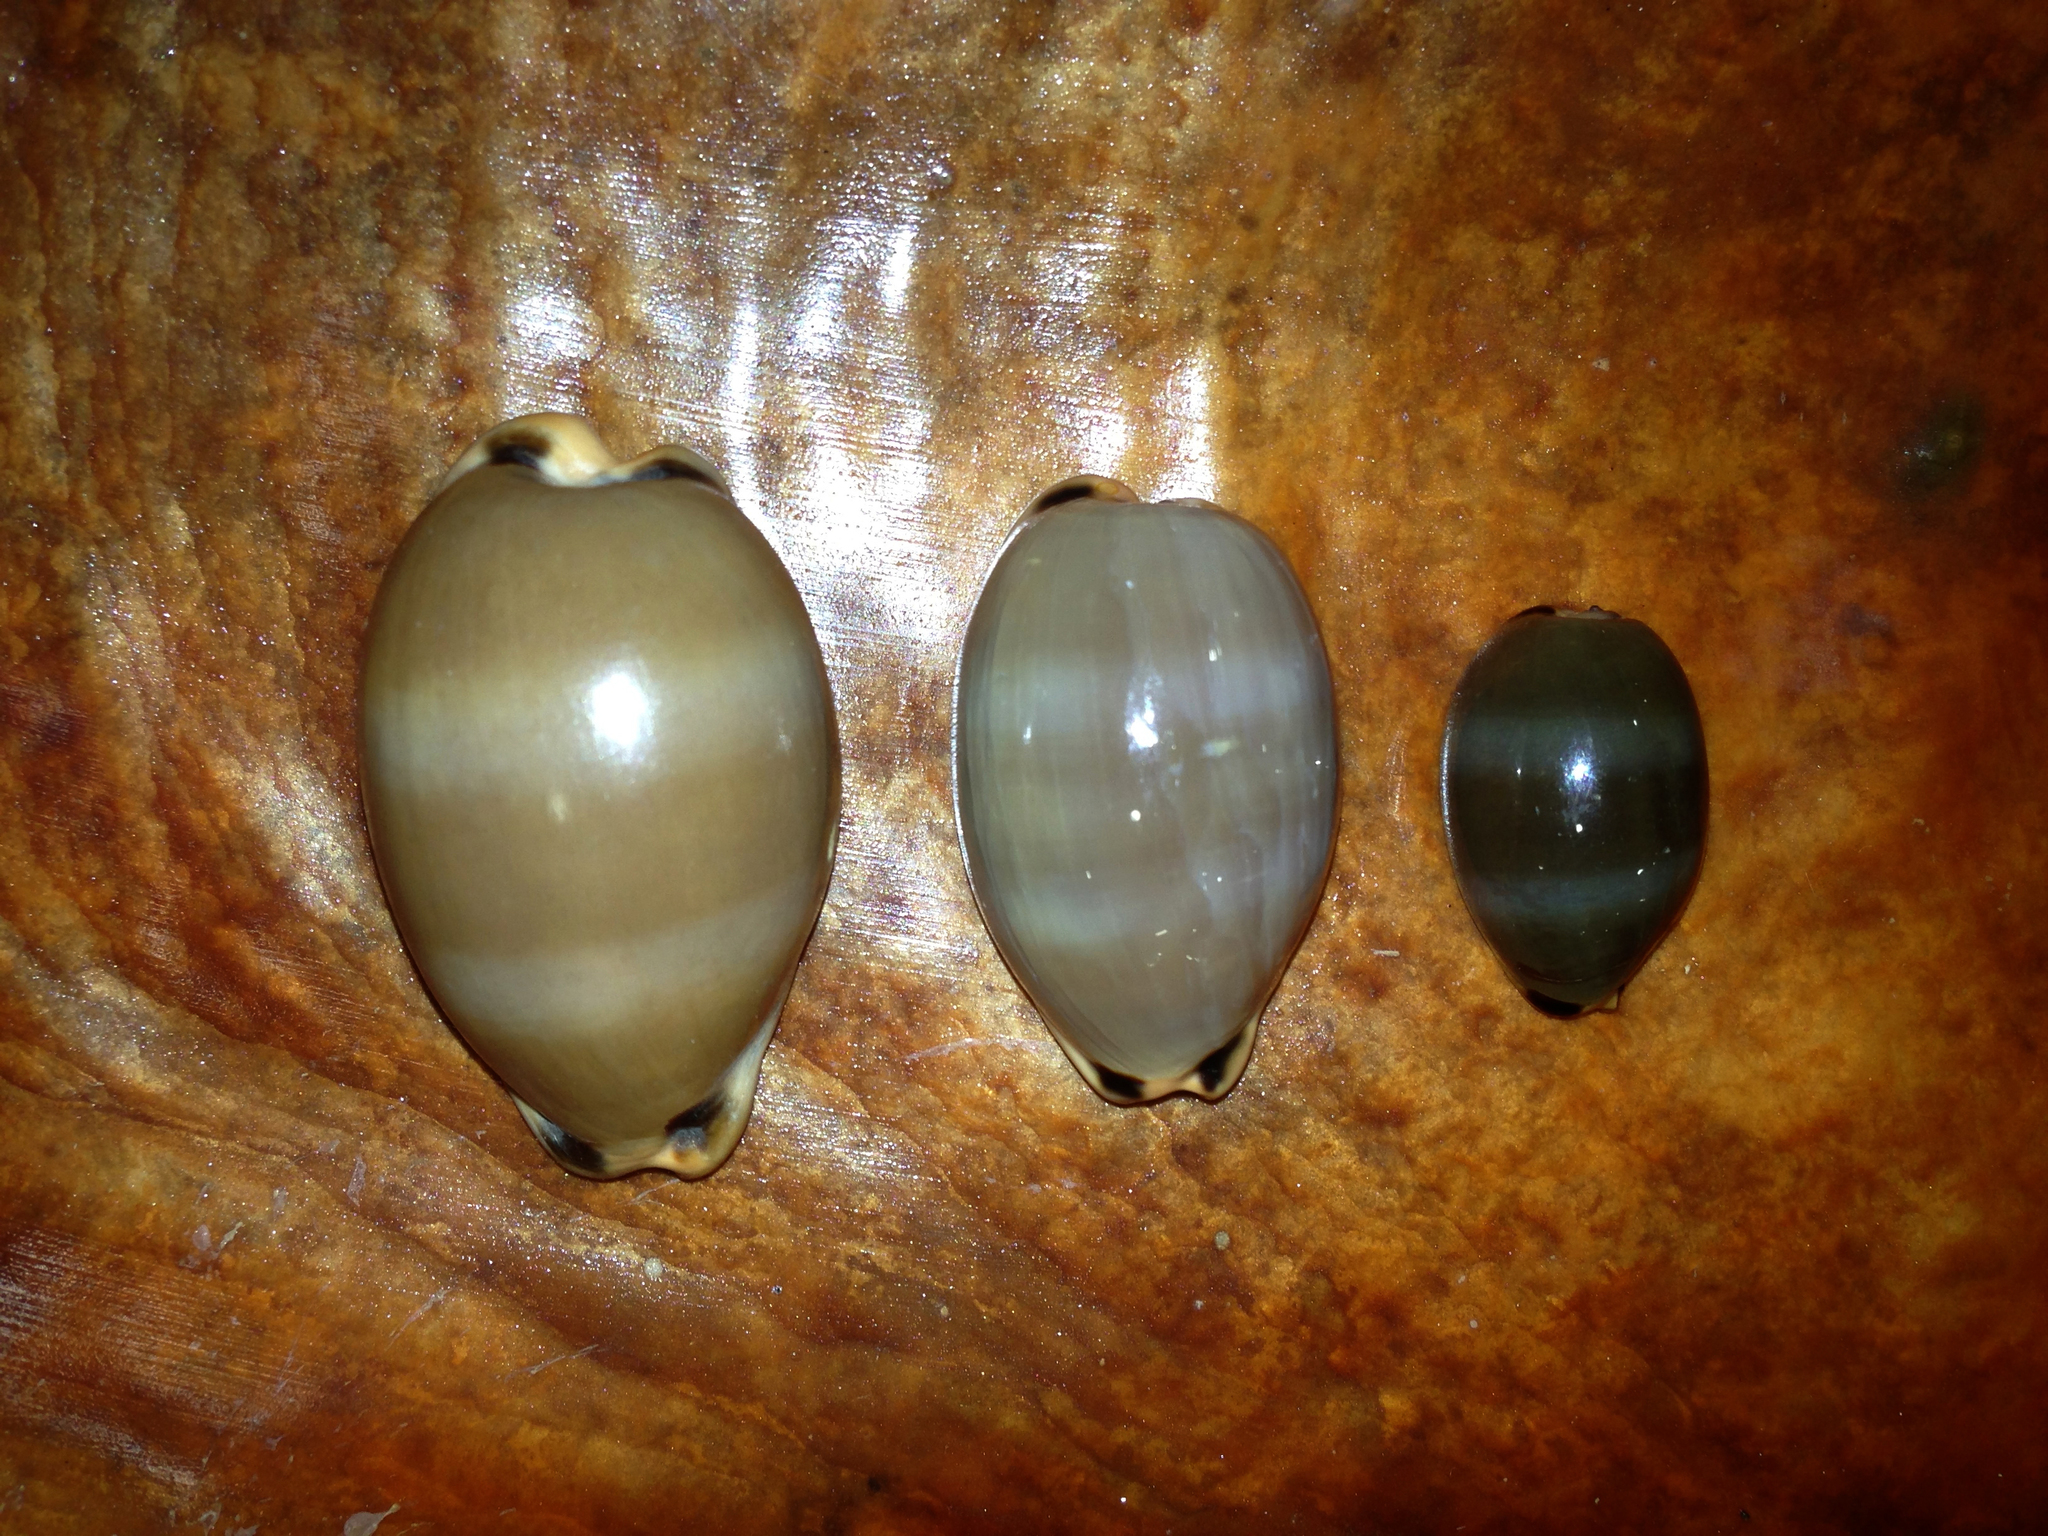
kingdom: Animalia
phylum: Mollusca
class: Gastropoda
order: Littorinimorpha
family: Cypraeidae
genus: Luria
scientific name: Luria lurida
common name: Brown cowry
